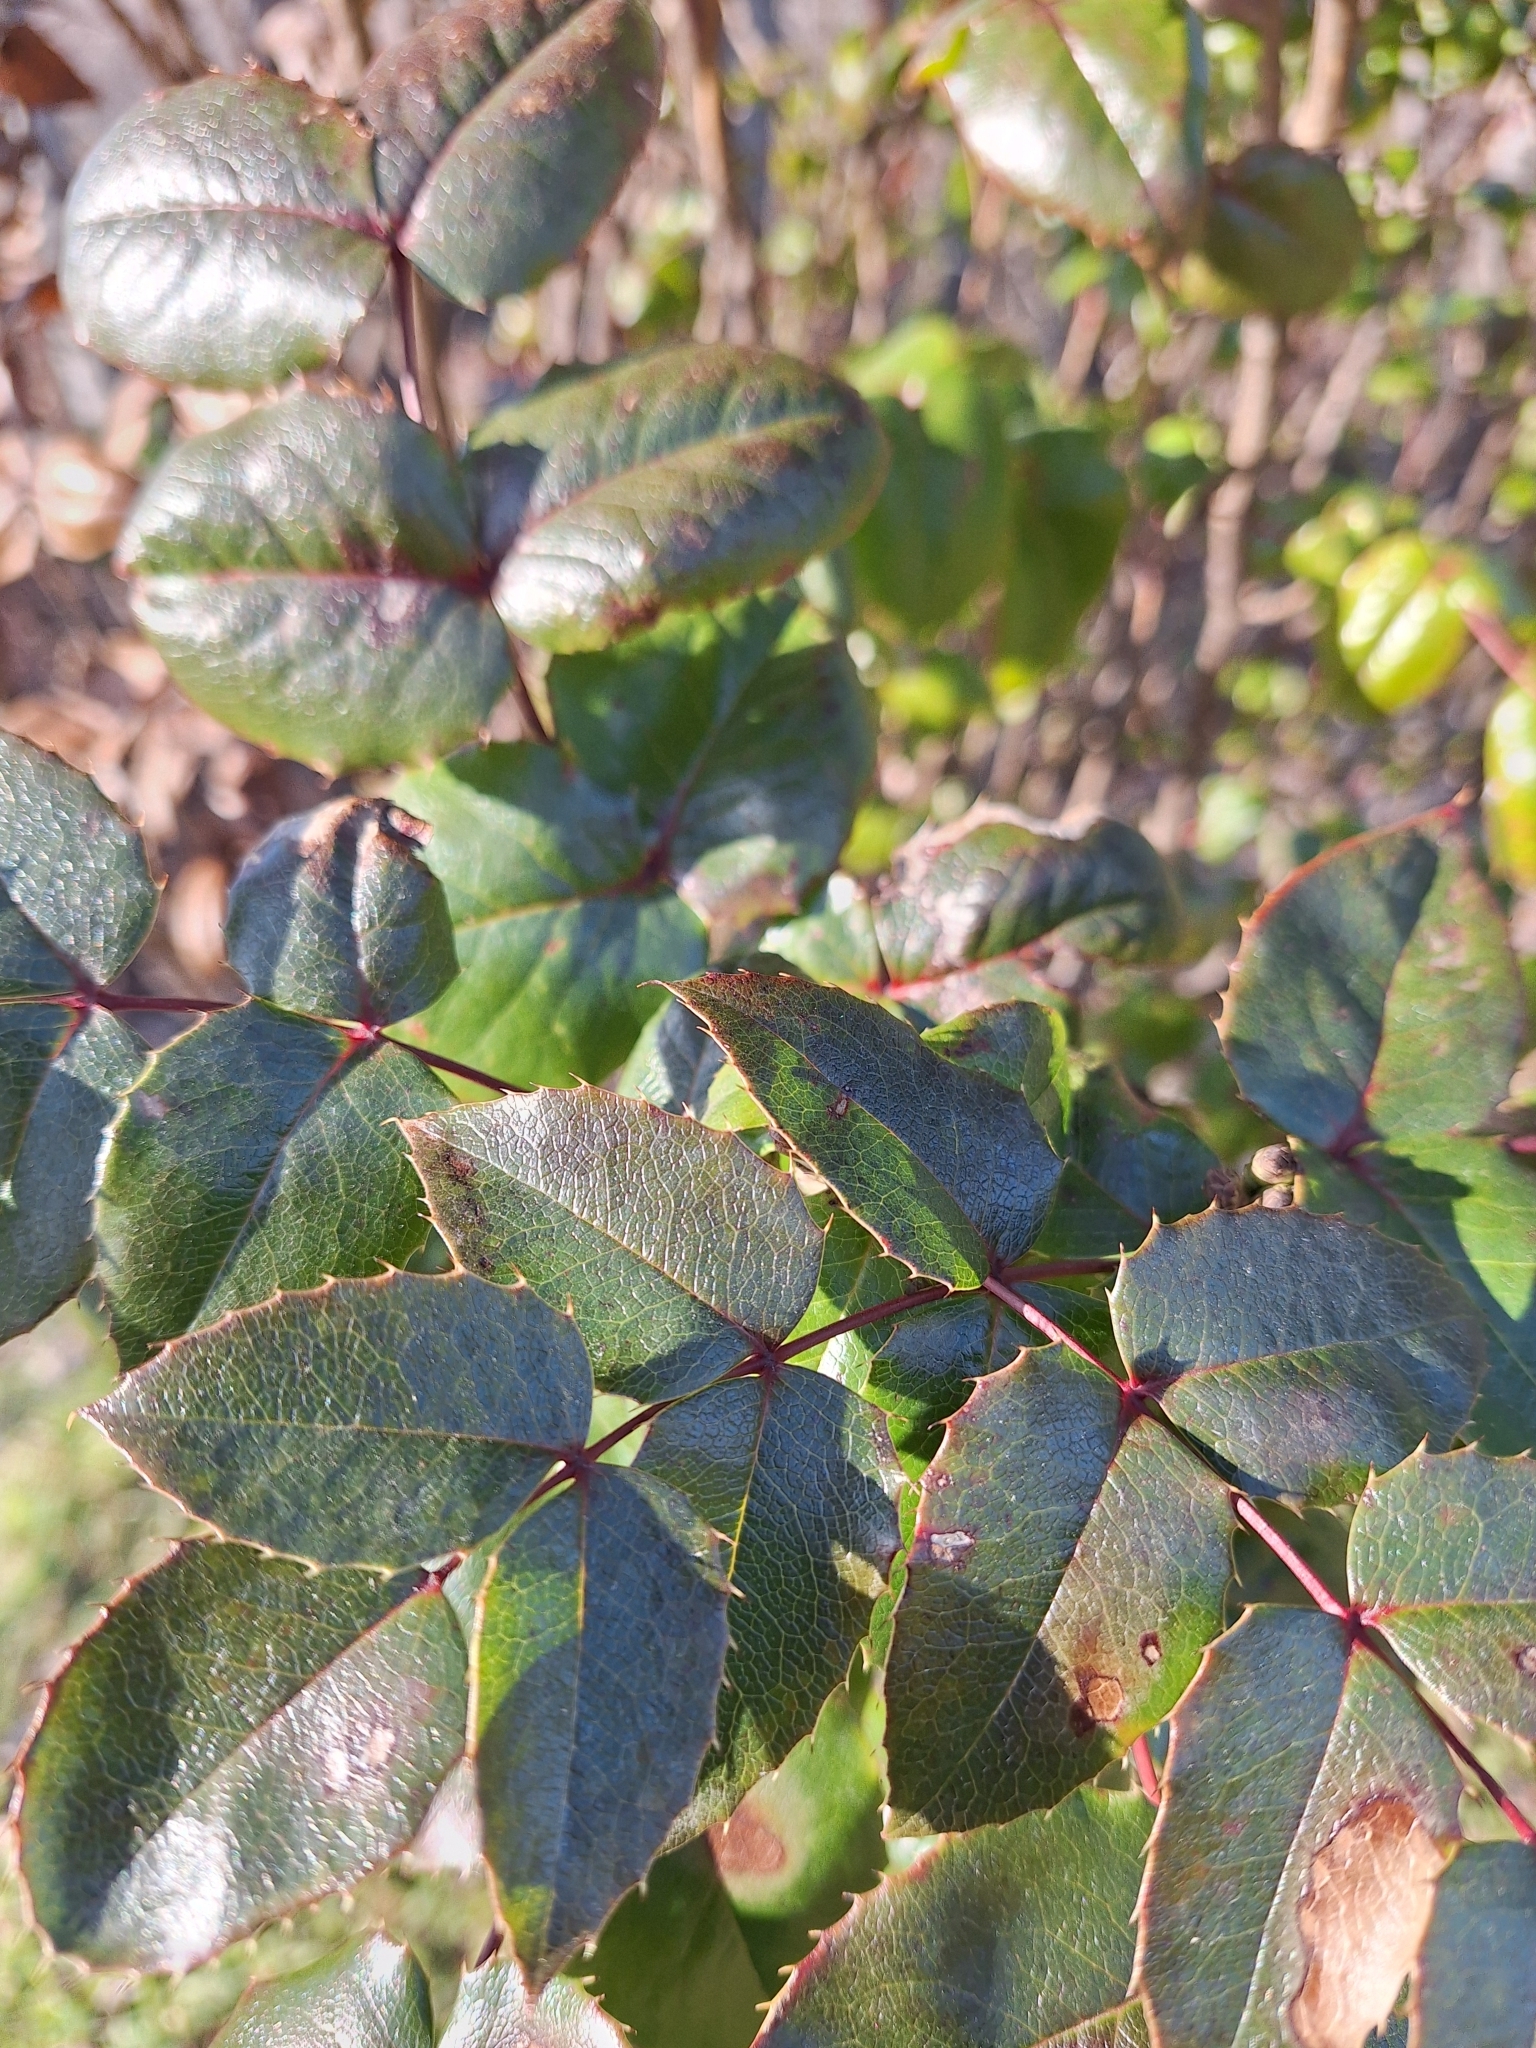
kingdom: Plantae
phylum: Tracheophyta
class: Magnoliopsida
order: Ranunculales
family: Berberidaceae
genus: Mahonia
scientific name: Mahonia aquifolium
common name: Oregon-grape
